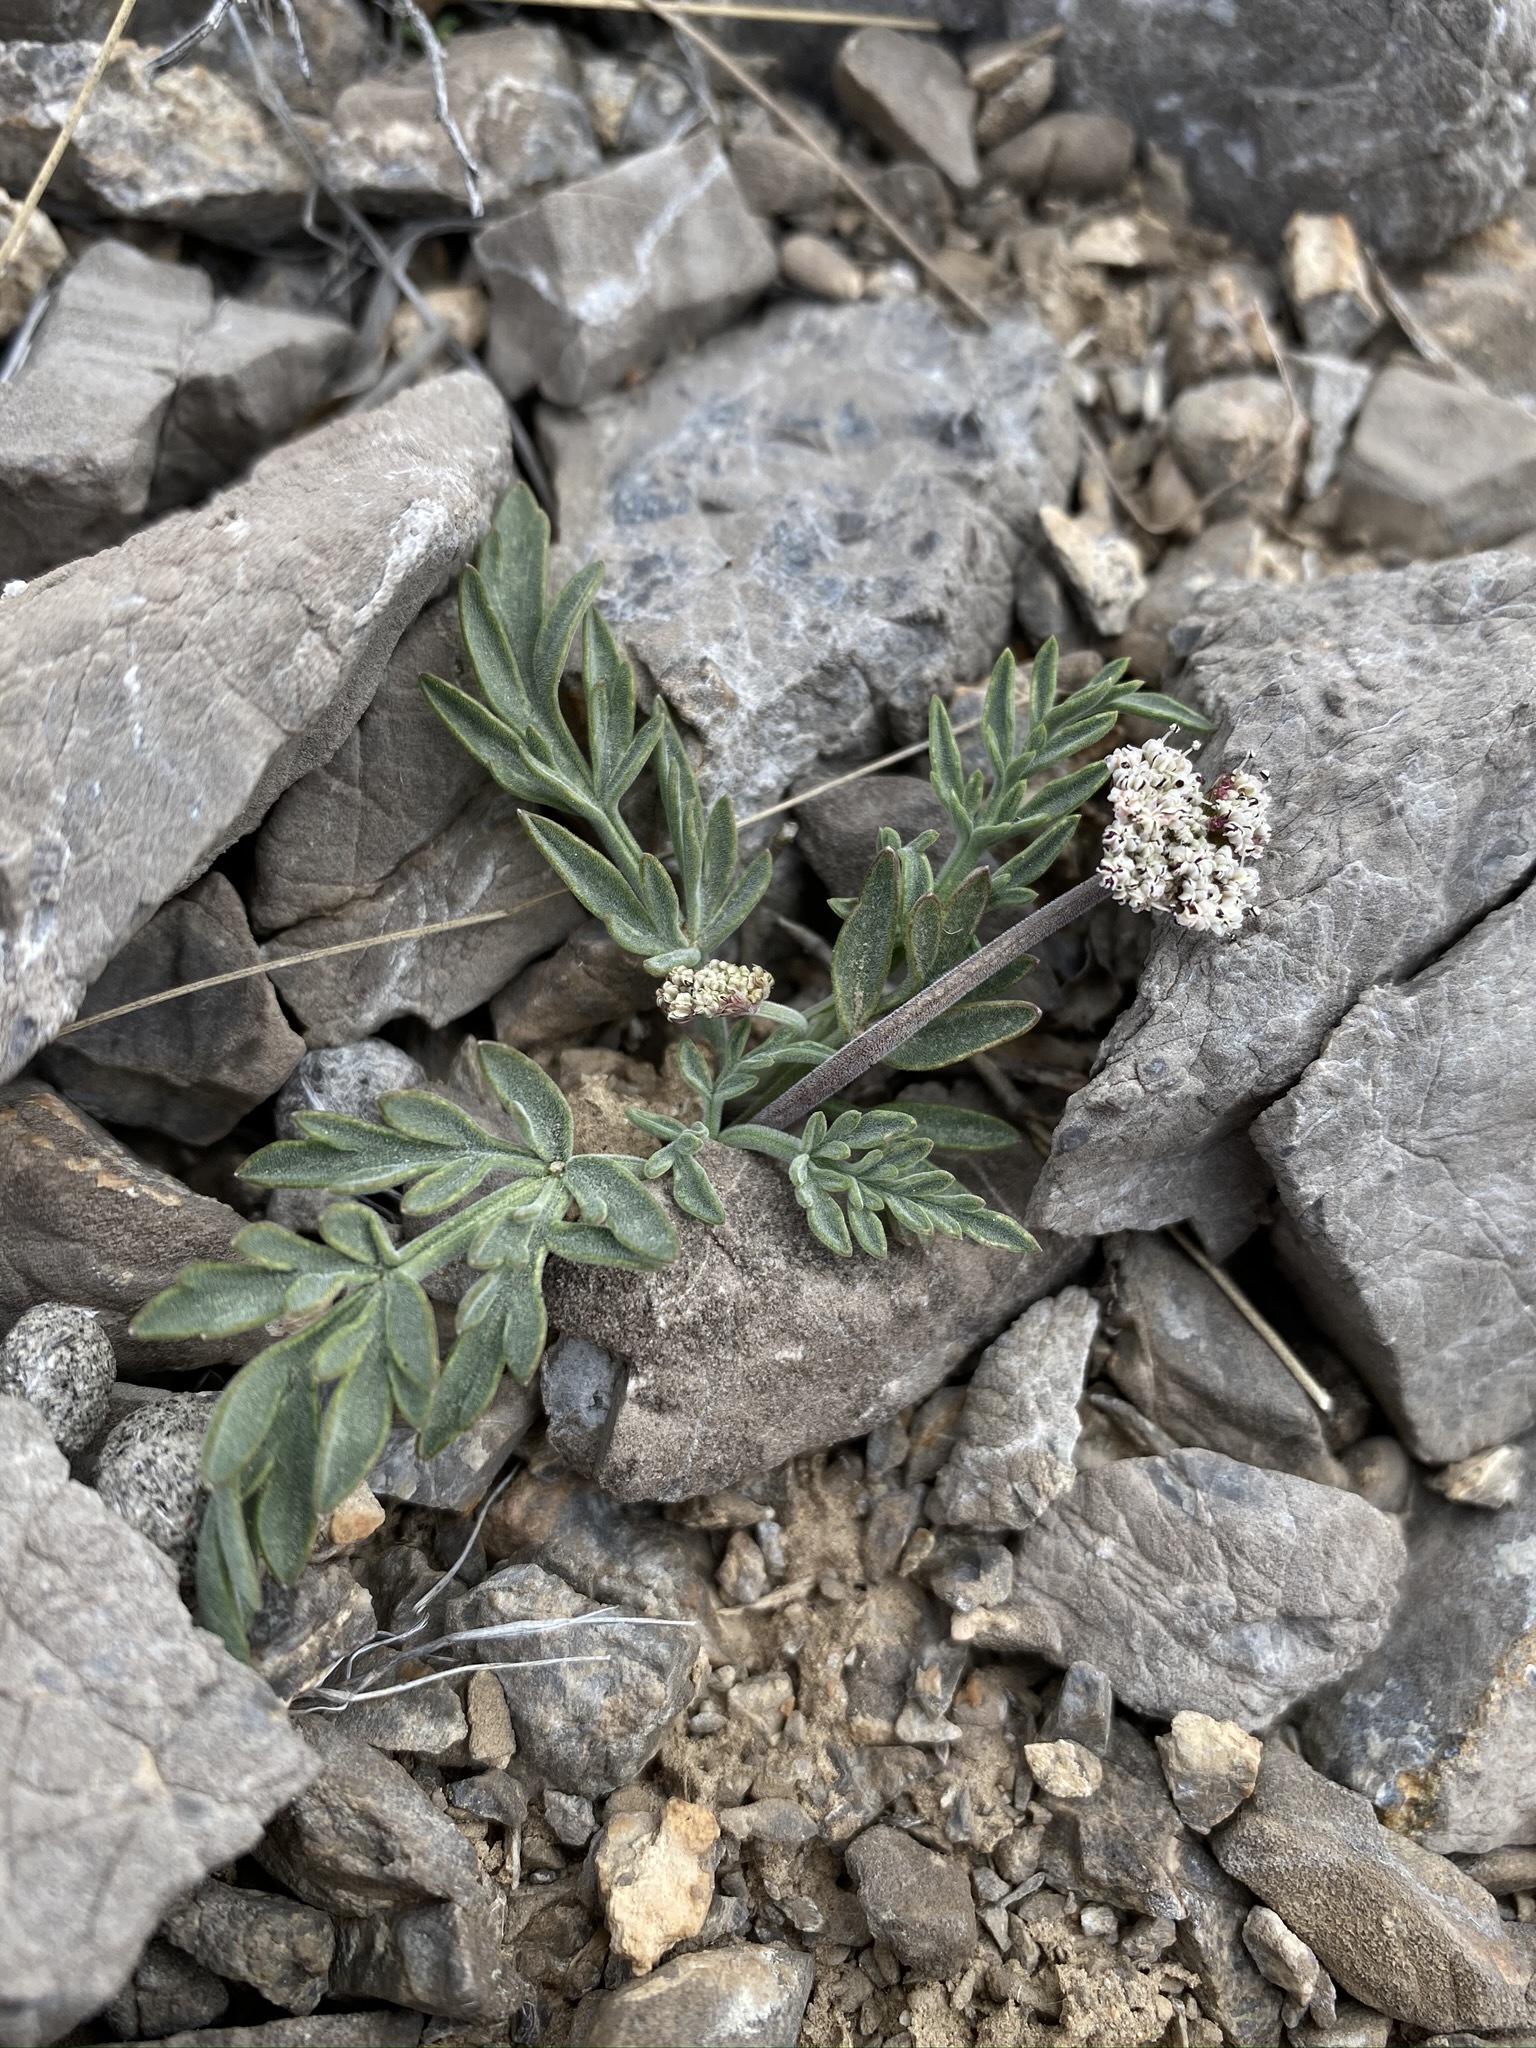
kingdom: Plantae
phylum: Tracheophyta
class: Magnoliopsida
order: Apiales
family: Apiaceae
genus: Lomatium
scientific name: Lomatium nevadense
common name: Nevada lomatium
